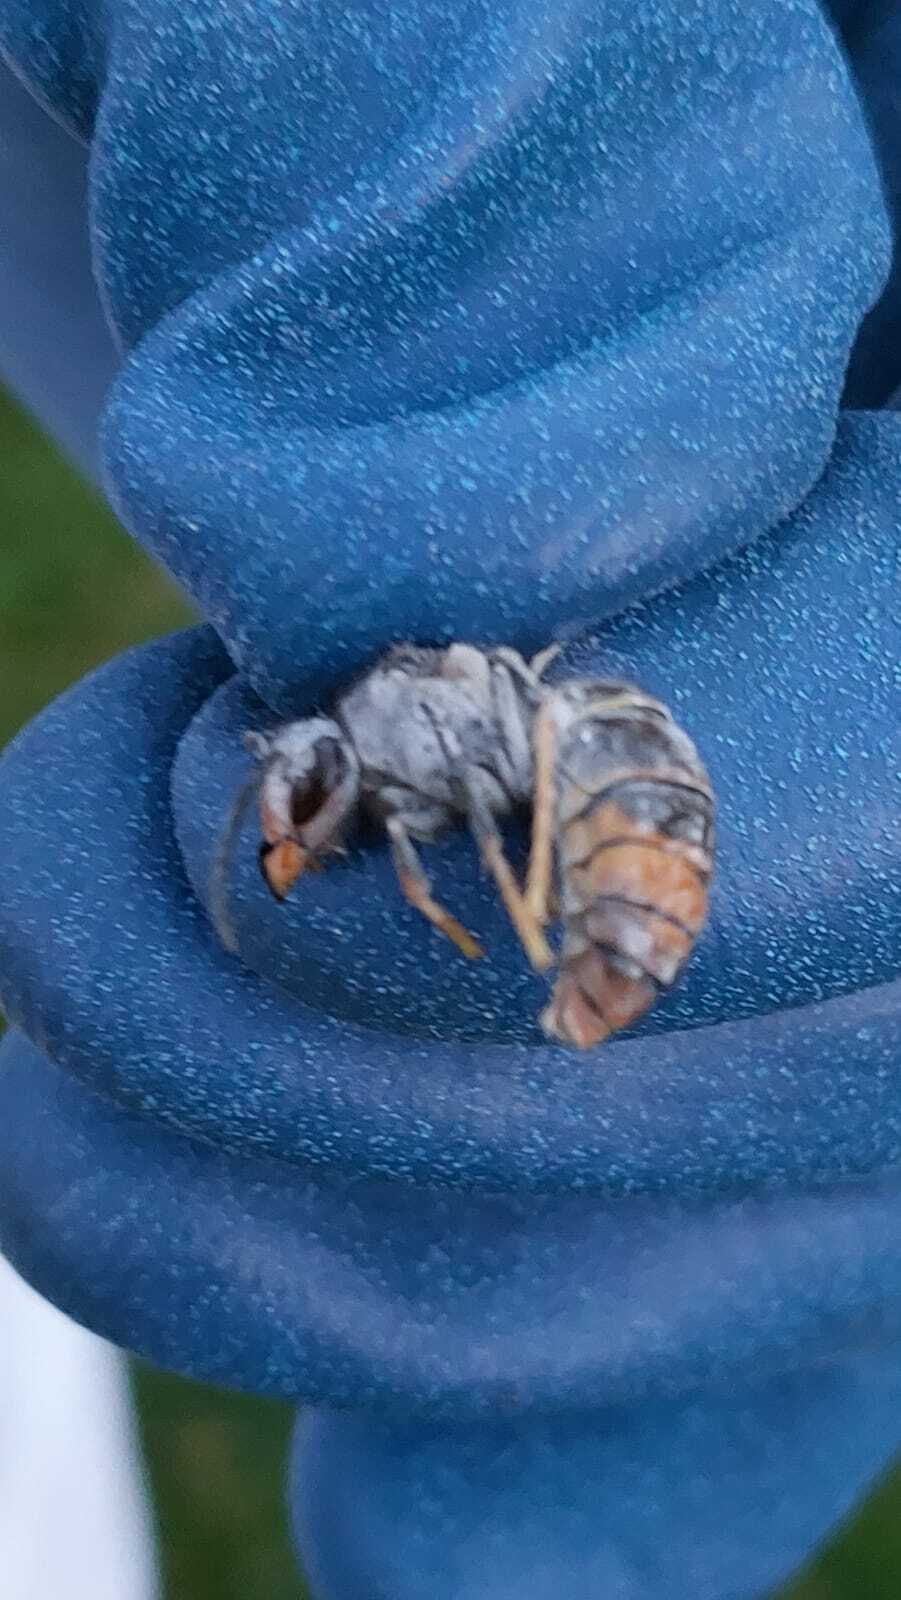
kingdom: Animalia
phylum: Arthropoda
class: Insecta
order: Hymenoptera
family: Vespidae
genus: Vespa
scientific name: Vespa velutina
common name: Asian hornet
